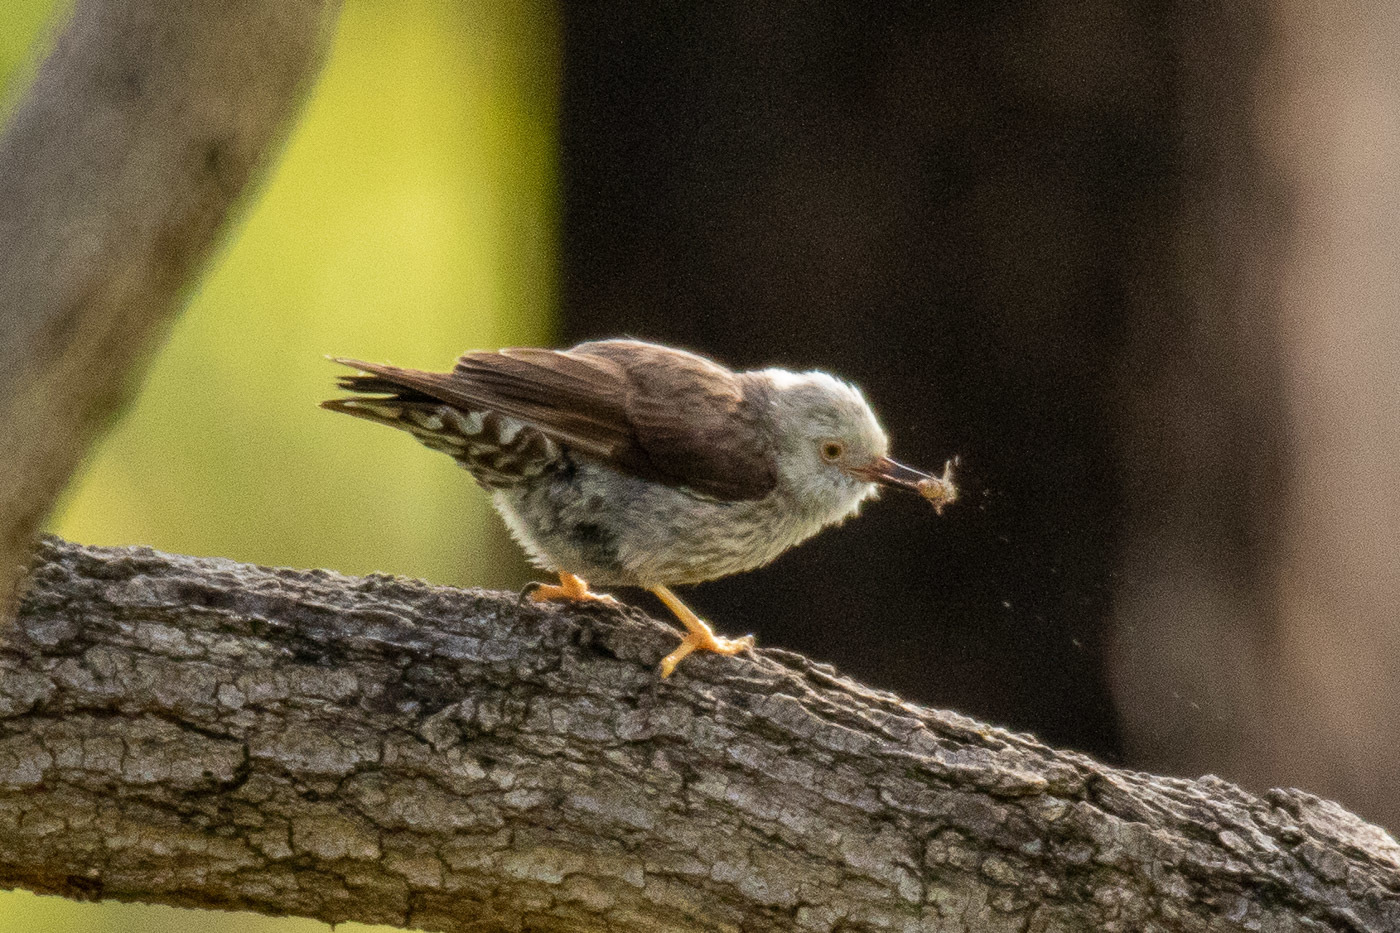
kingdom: Animalia
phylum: Chordata
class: Aves
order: Passeriformes
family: Neosittidae
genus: Daphoenositta
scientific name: Daphoenositta chrysoptera
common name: Varied sittella
